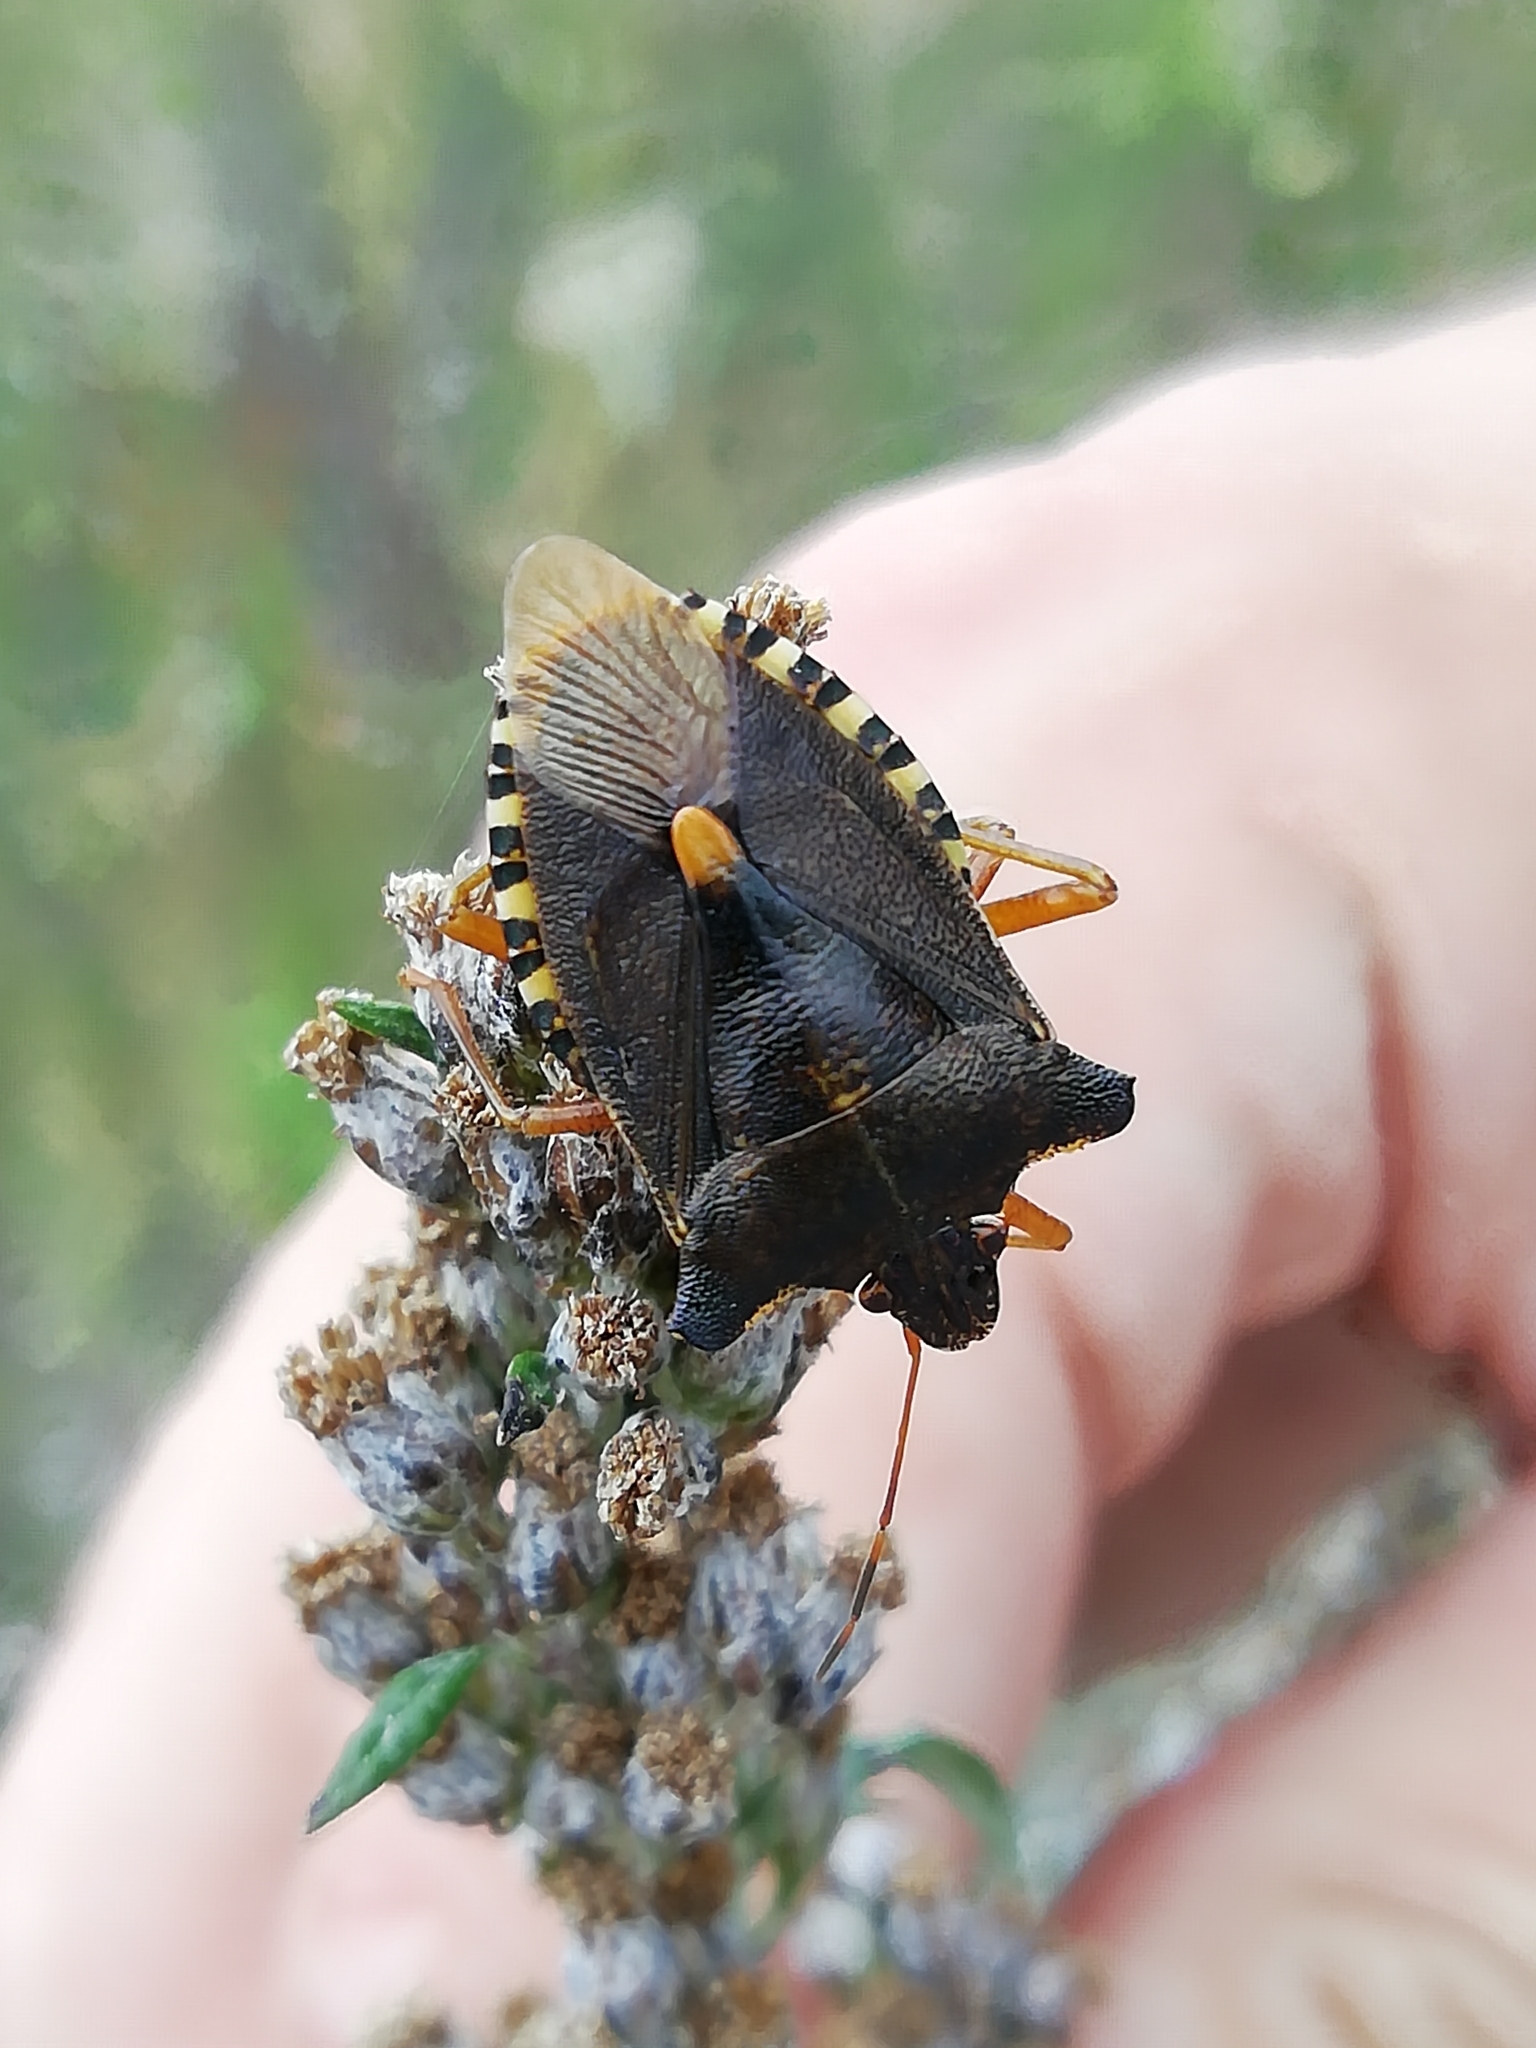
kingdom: Animalia
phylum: Arthropoda
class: Insecta
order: Hemiptera
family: Pentatomidae
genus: Pentatoma
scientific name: Pentatoma rufipes
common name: Forest bug
